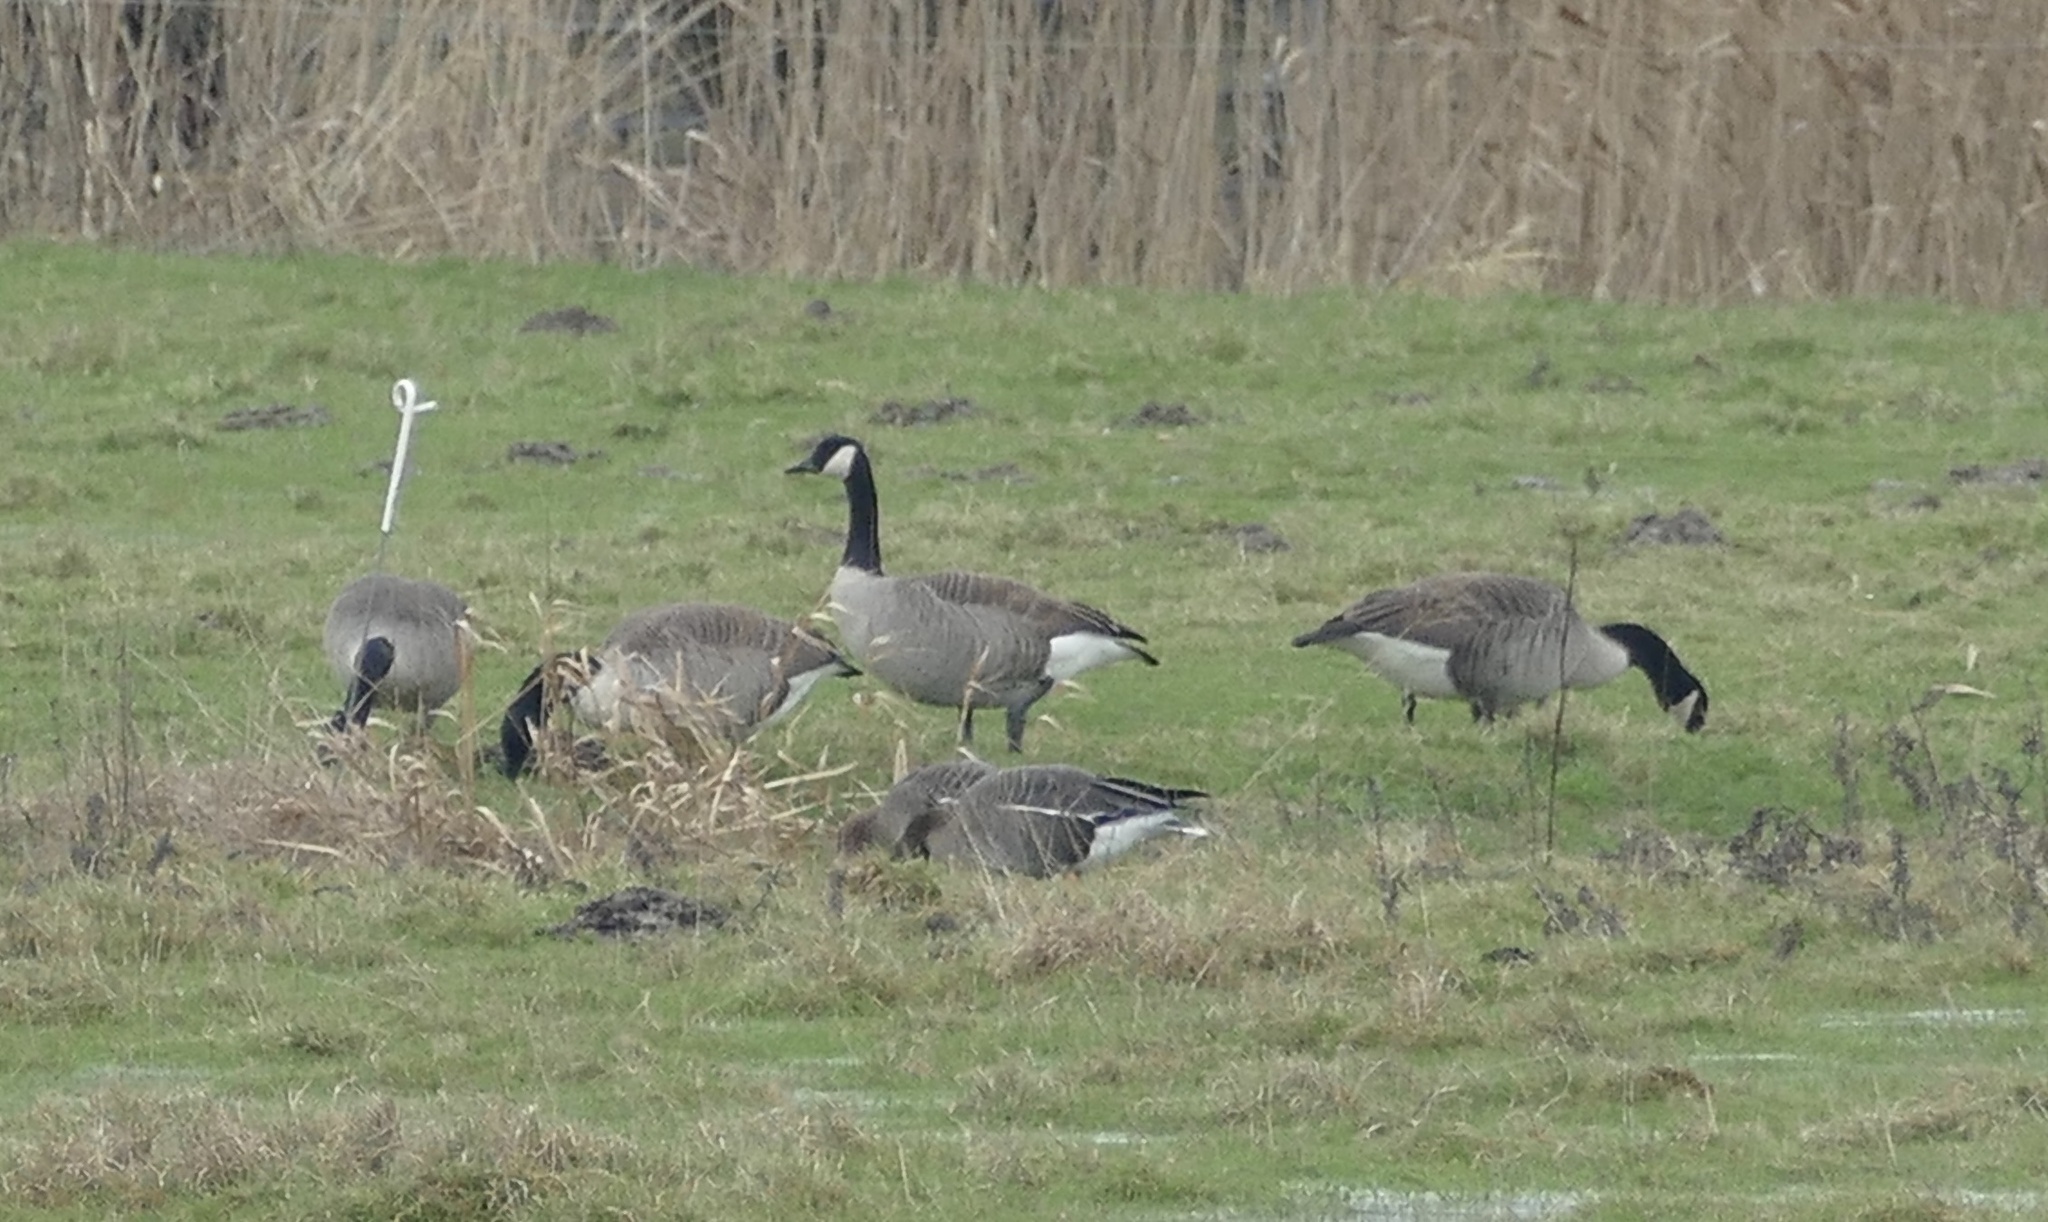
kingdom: Animalia
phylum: Chordata
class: Aves
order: Anseriformes
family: Anatidae
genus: Branta
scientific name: Branta canadensis
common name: Canada goose
